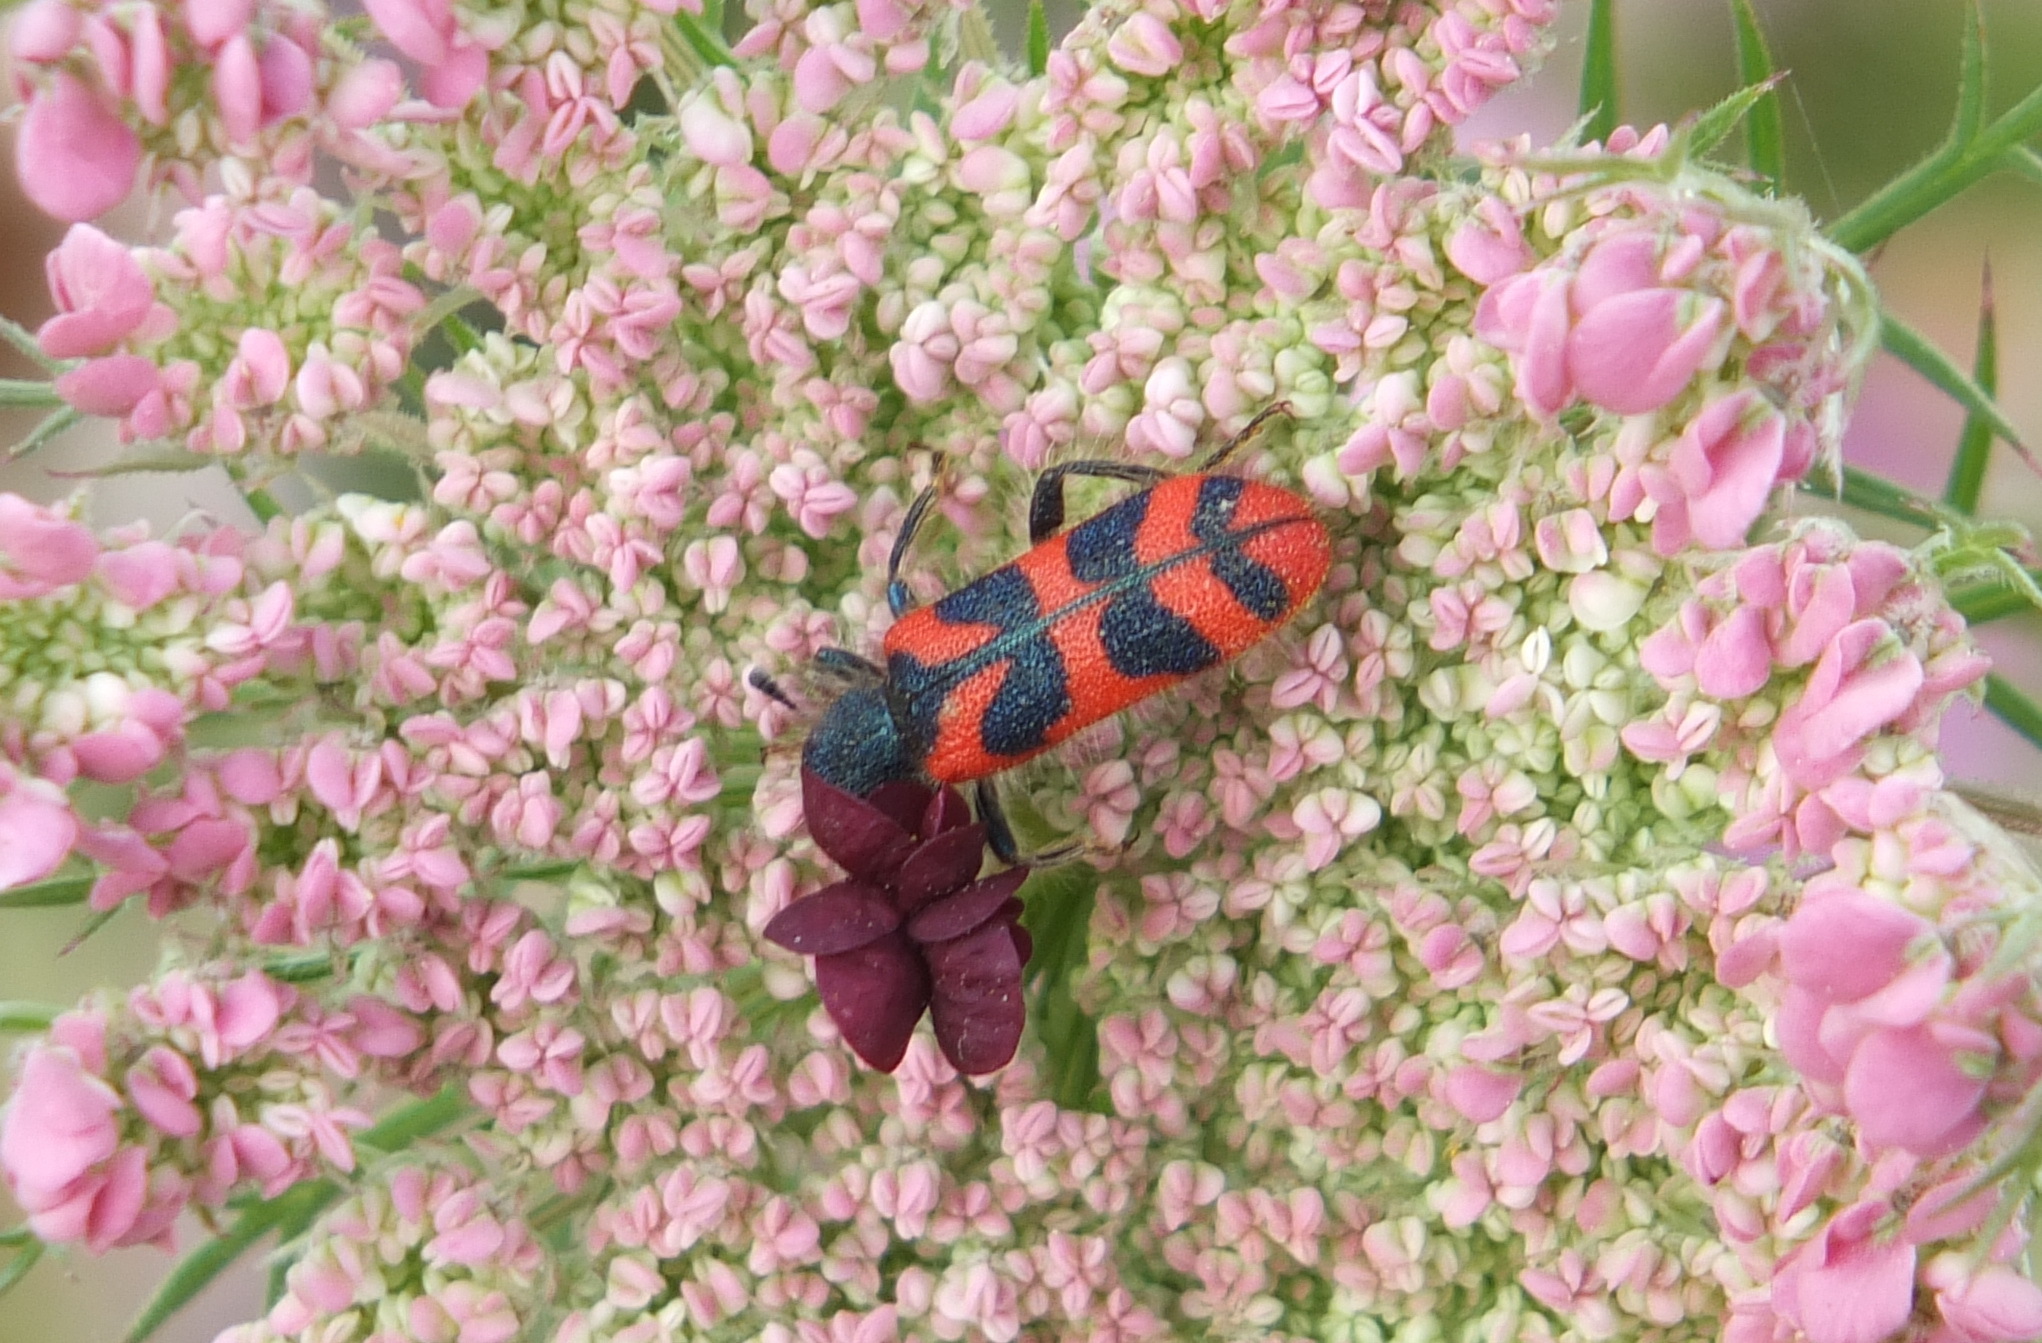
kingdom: Animalia
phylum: Arthropoda
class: Insecta
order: Coleoptera
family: Cleridae
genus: Trichodes
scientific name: Trichodes umbellatarum
